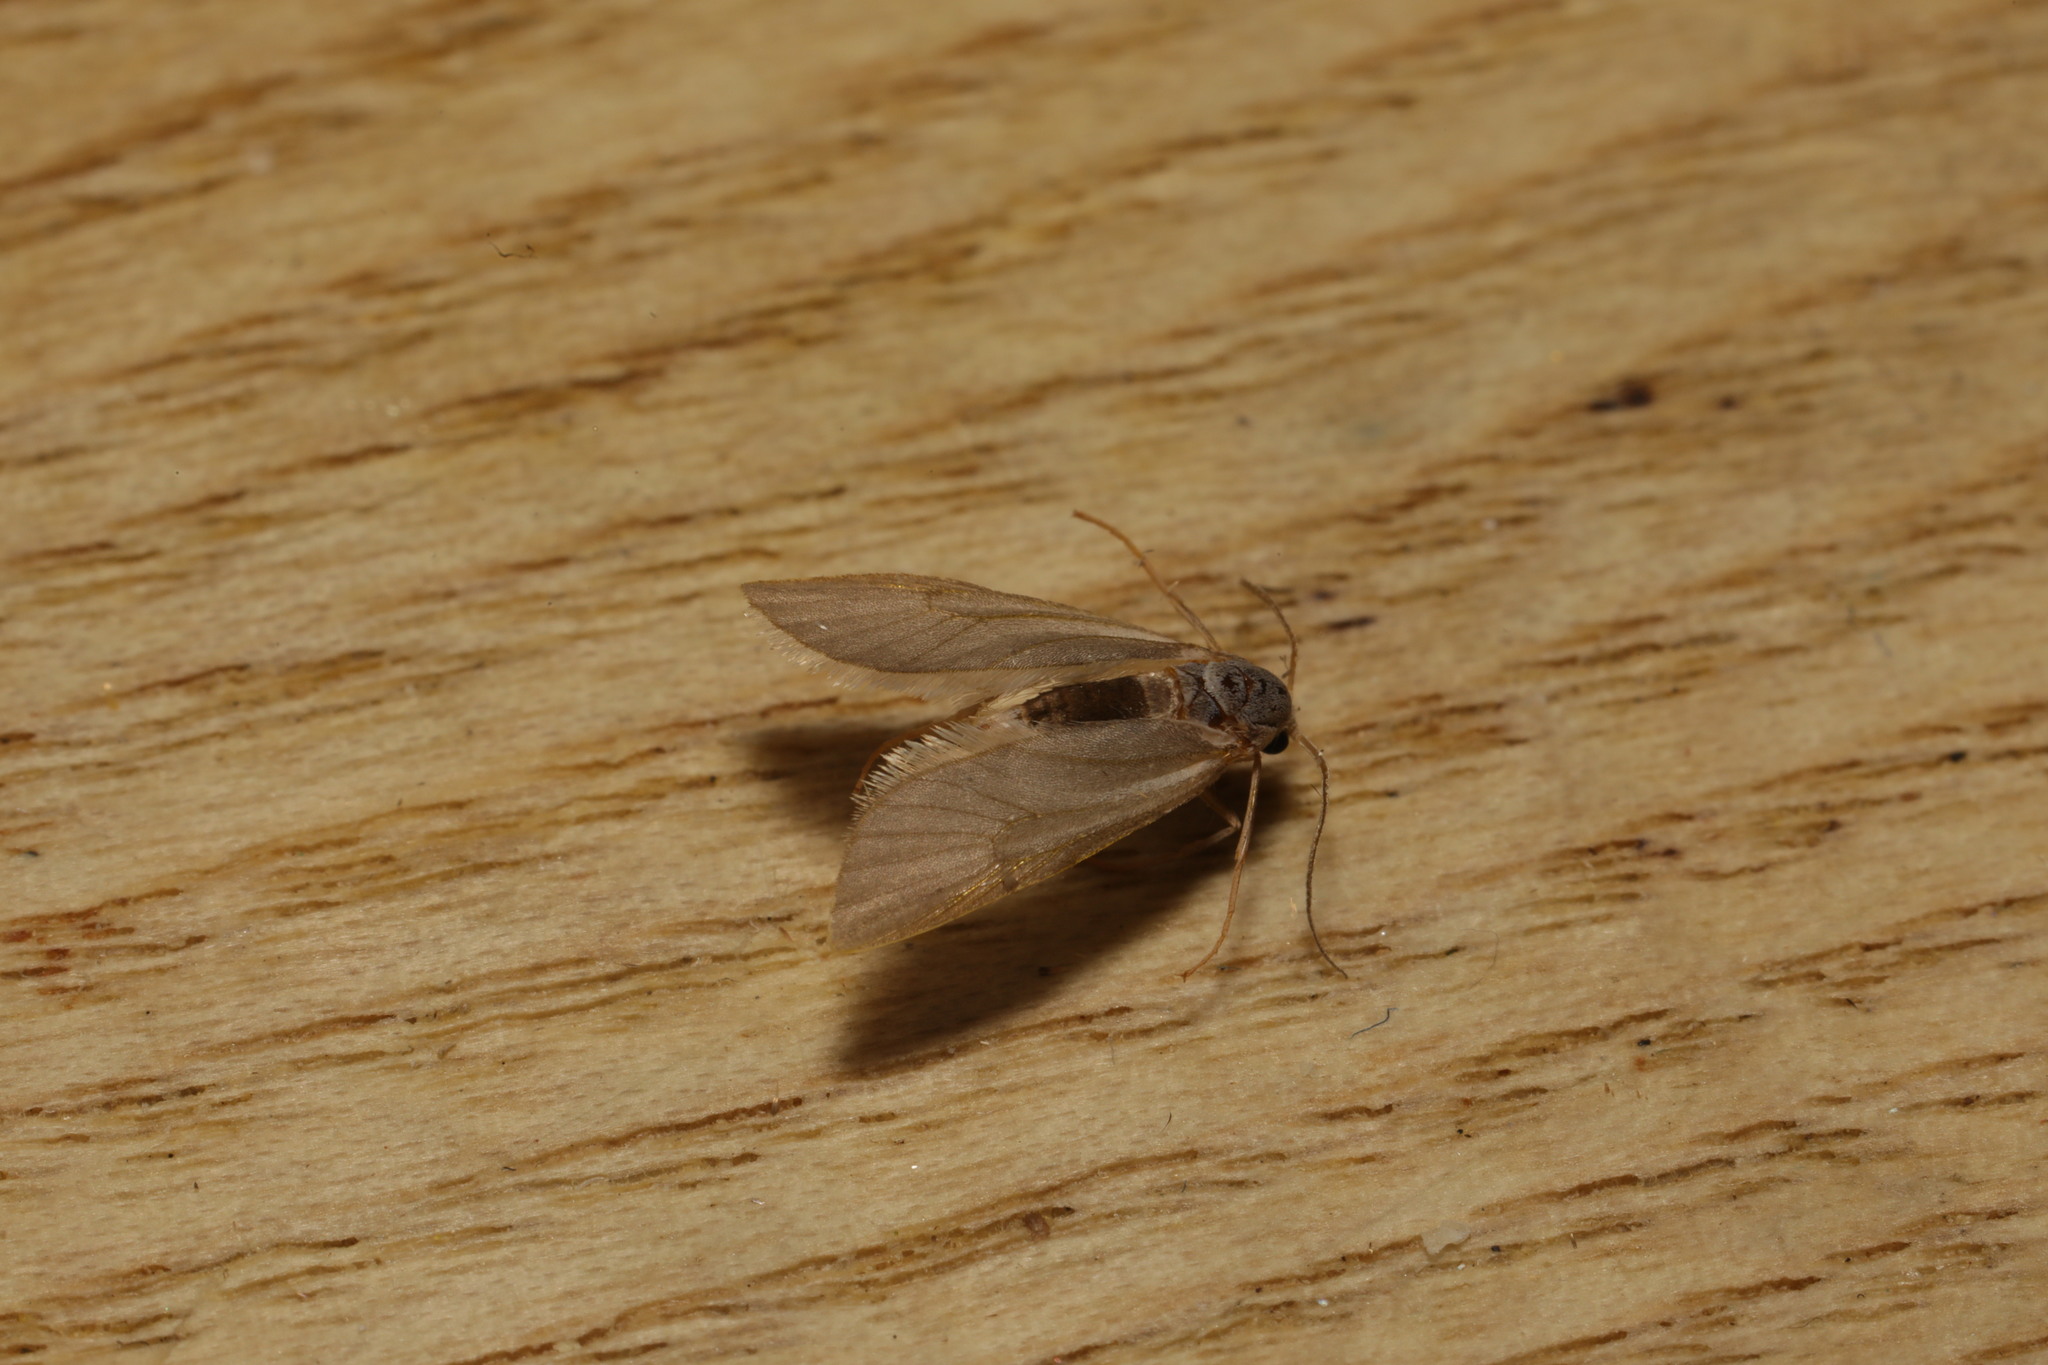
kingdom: Animalia
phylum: Arthropoda
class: Insecta
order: Lepidoptera
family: Crambidae
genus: Acentria
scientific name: Acentria ephemerella
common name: European water moth
